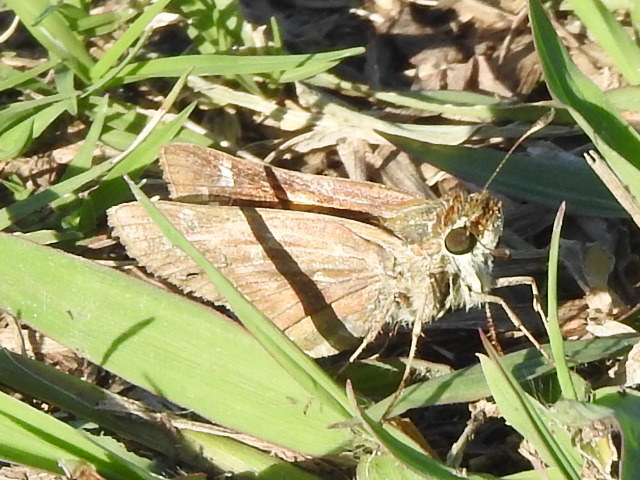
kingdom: Animalia
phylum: Arthropoda
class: Insecta
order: Lepidoptera
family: Hesperiidae
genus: Atalopedes
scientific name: Atalopedes
